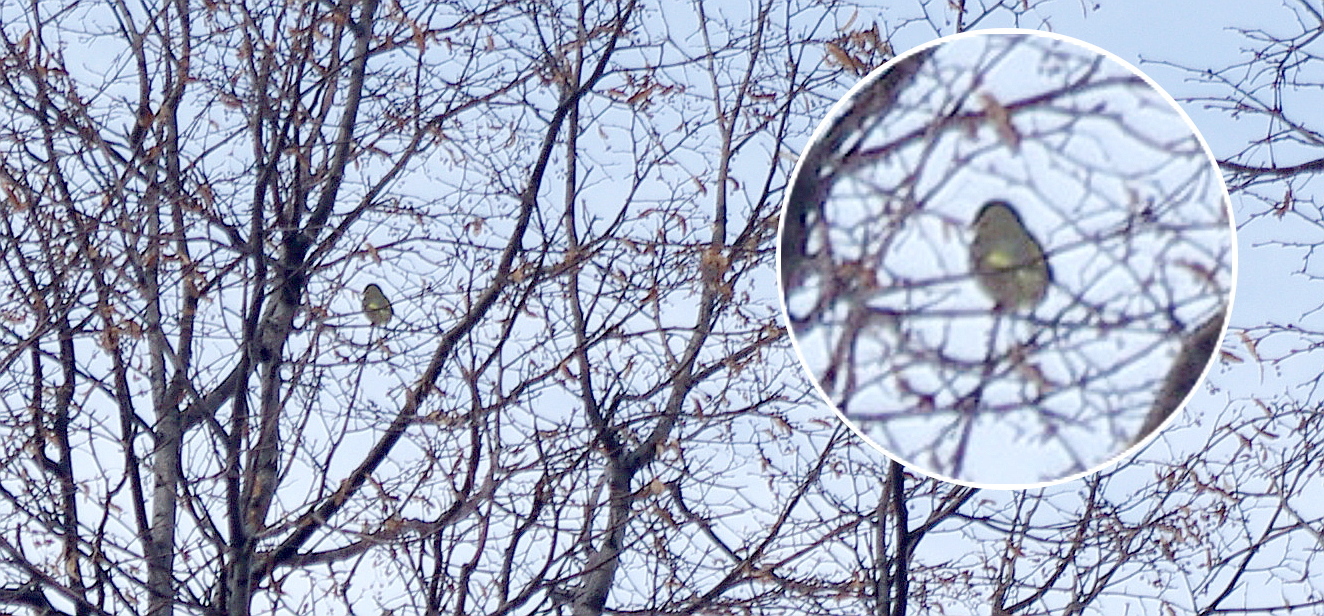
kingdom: Plantae
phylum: Tracheophyta
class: Liliopsida
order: Poales
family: Poaceae
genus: Chloris
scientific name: Chloris chloris
